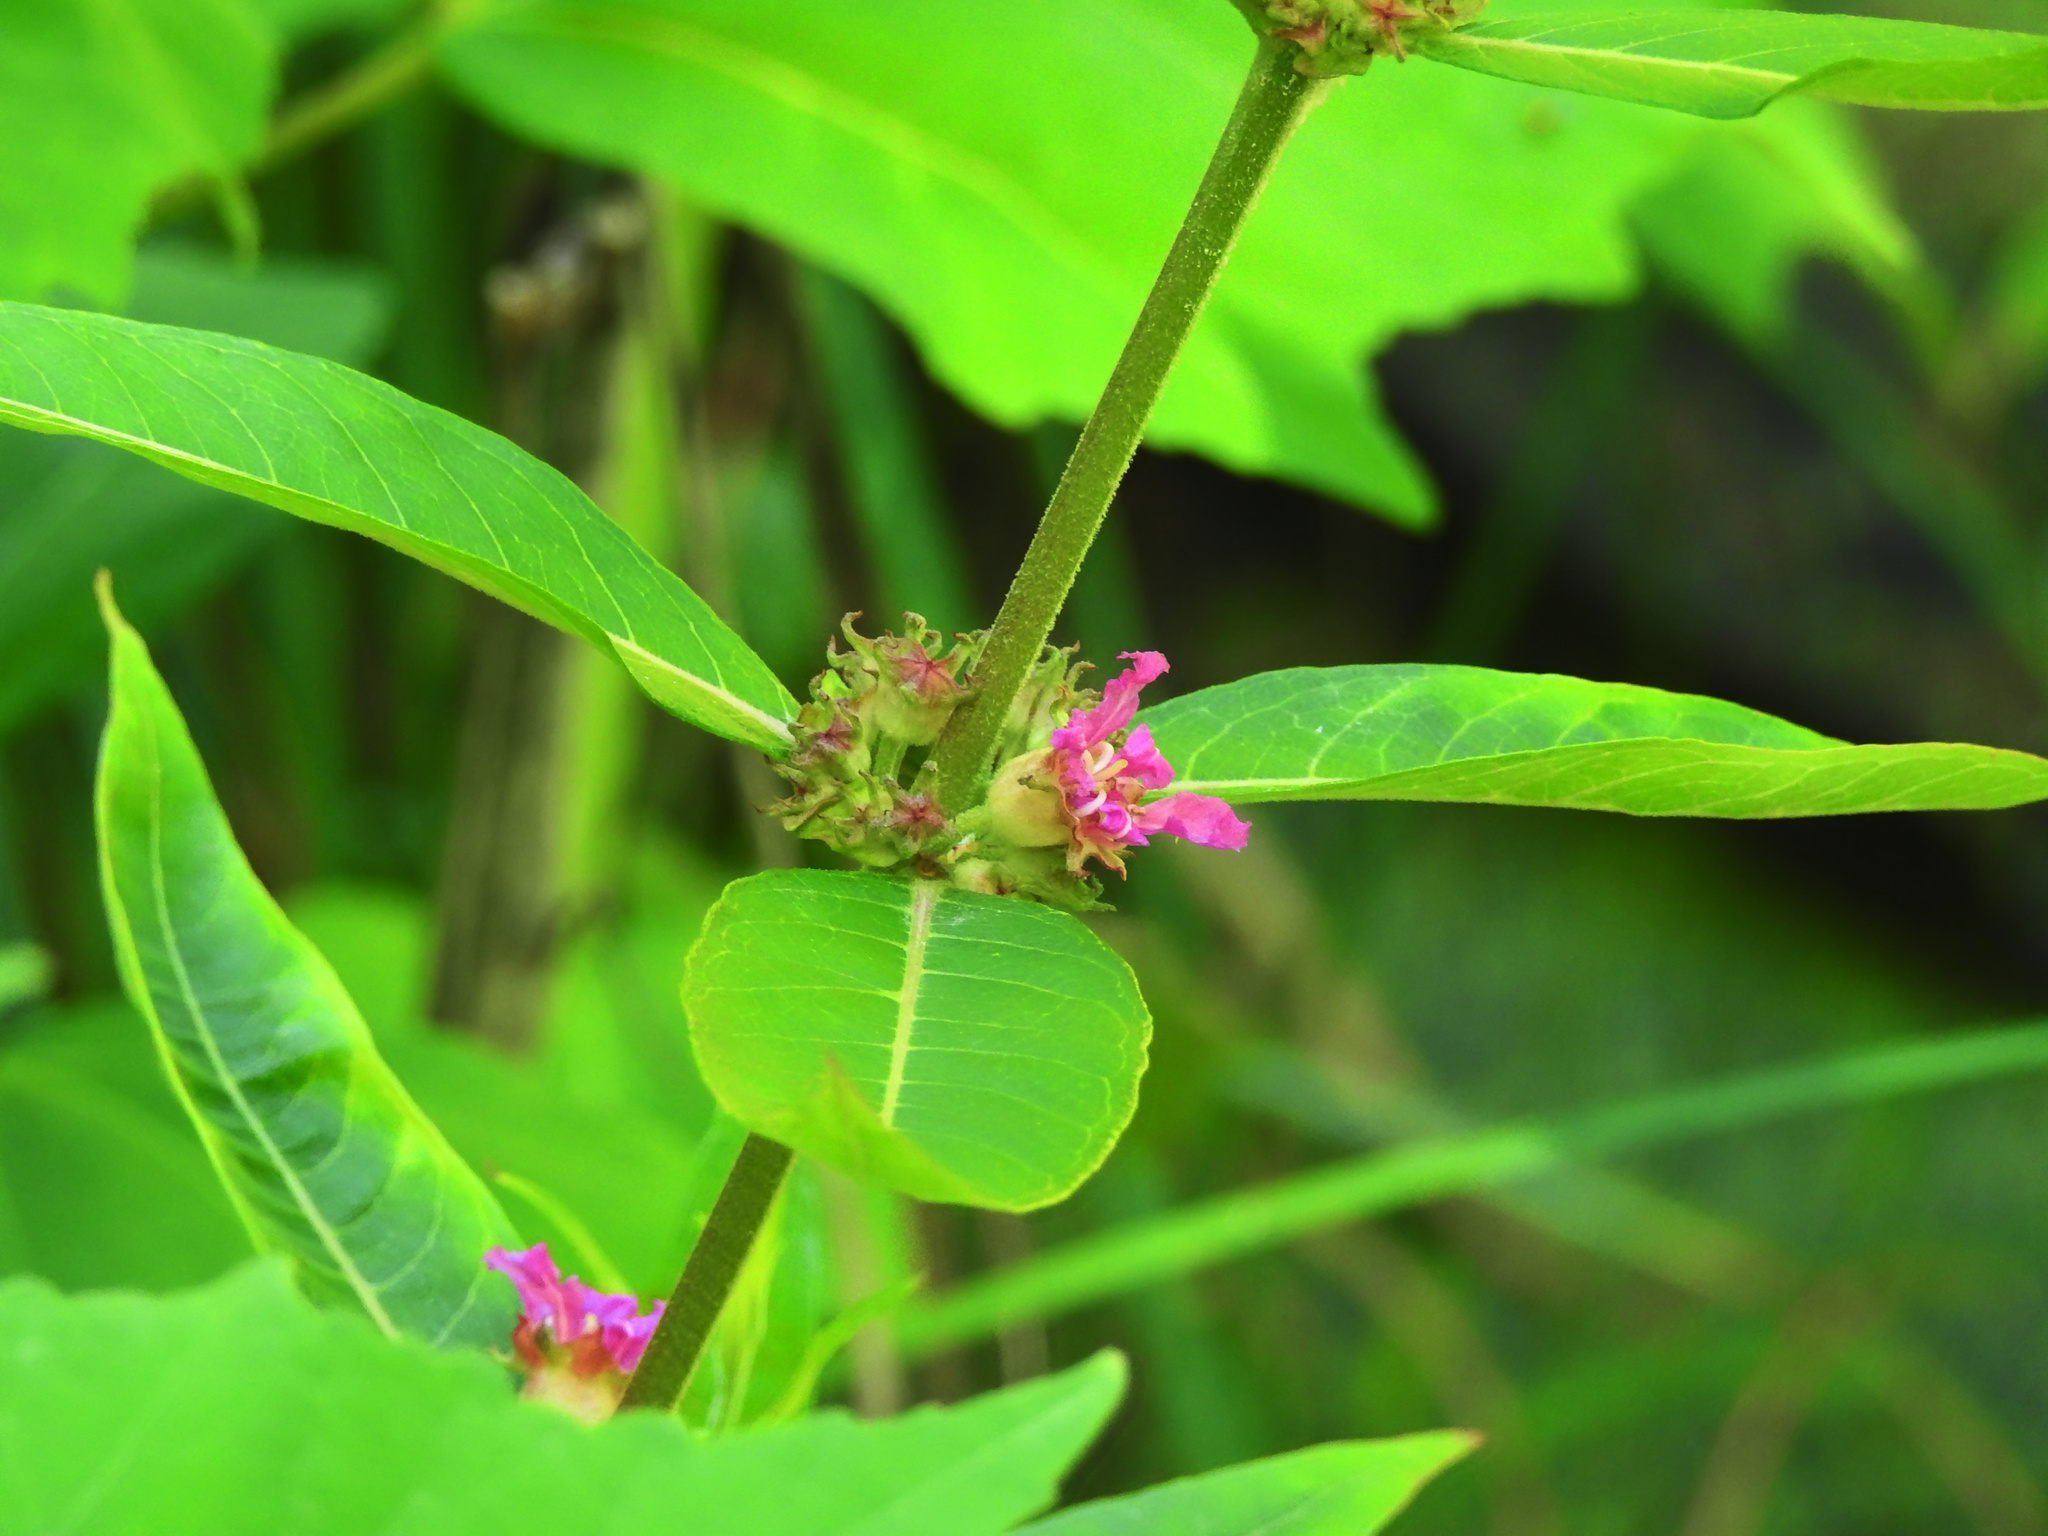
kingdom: Plantae
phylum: Tracheophyta
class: Magnoliopsida
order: Myrtales
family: Lythraceae
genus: Decodon
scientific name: Decodon verticillatus
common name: Hairy swamp loosestrife
